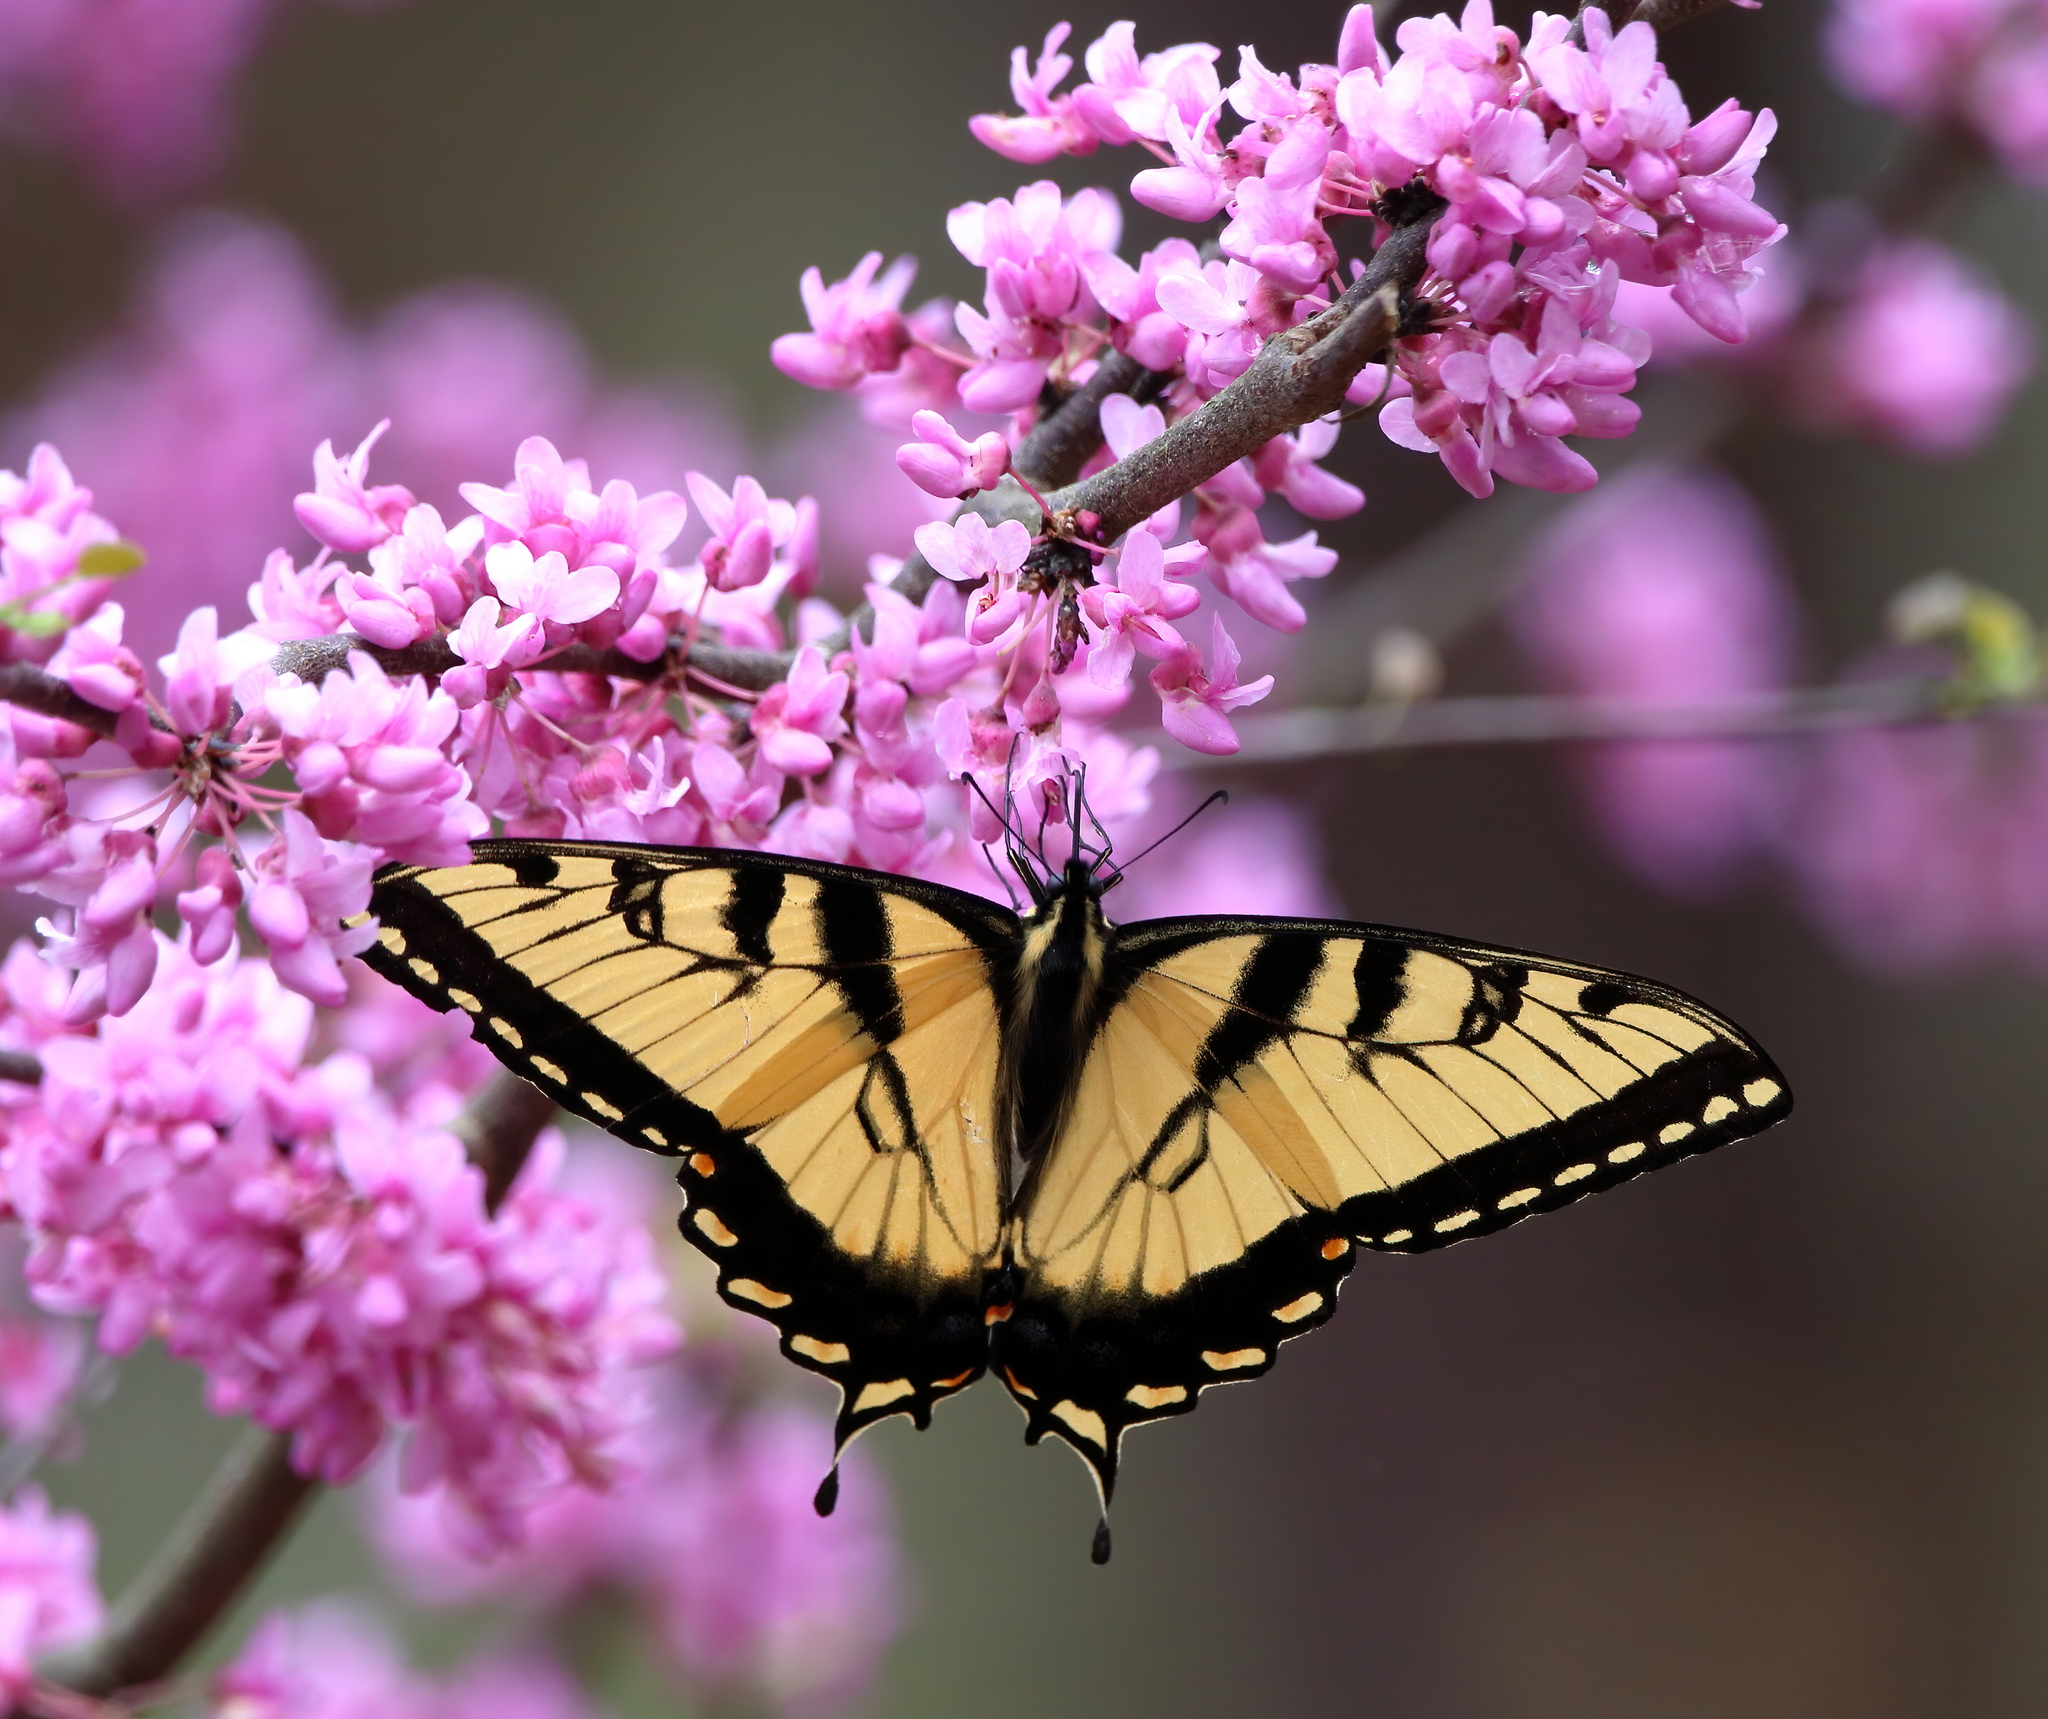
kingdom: Animalia
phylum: Arthropoda
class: Insecta
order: Lepidoptera
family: Papilionidae
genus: Papilio
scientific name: Papilio glaucus
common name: Tiger swallowtail
